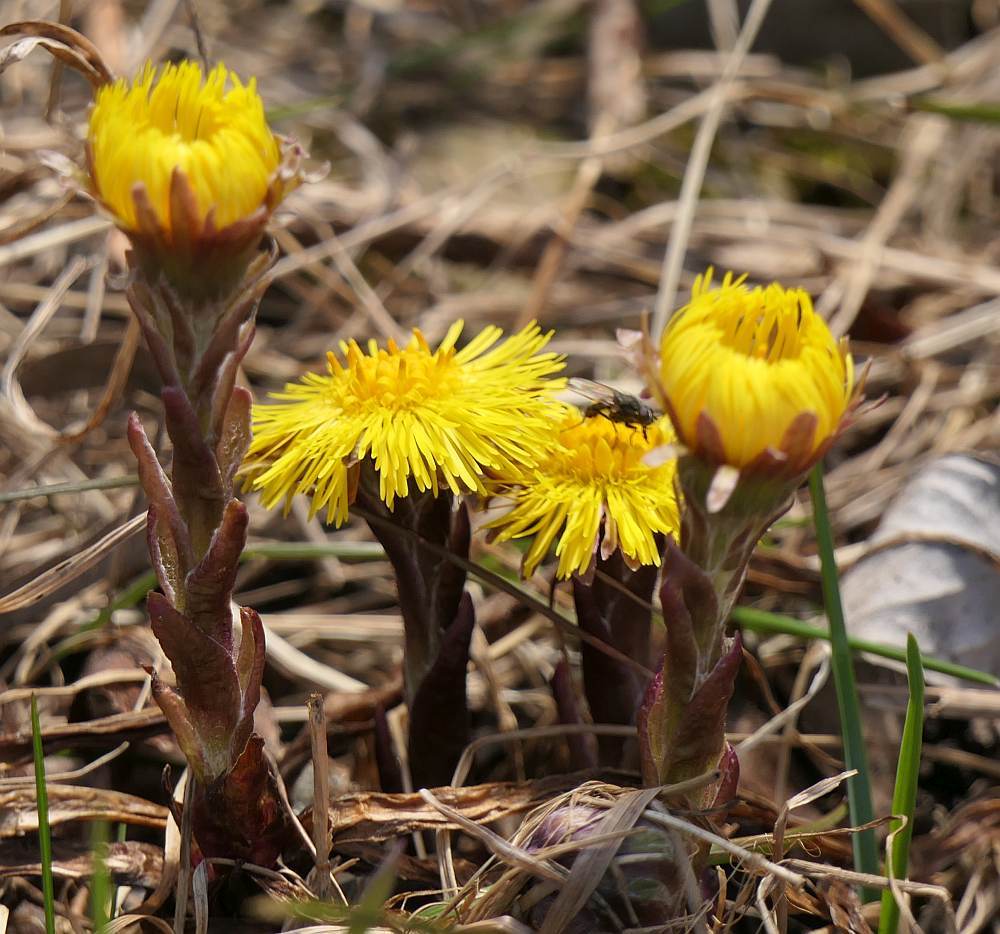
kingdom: Plantae
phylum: Tracheophyta
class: Magnoliopsida
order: Asterales
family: Asteraceae
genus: Tussilago
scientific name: Tussilago farfara
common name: Coltsfoot
